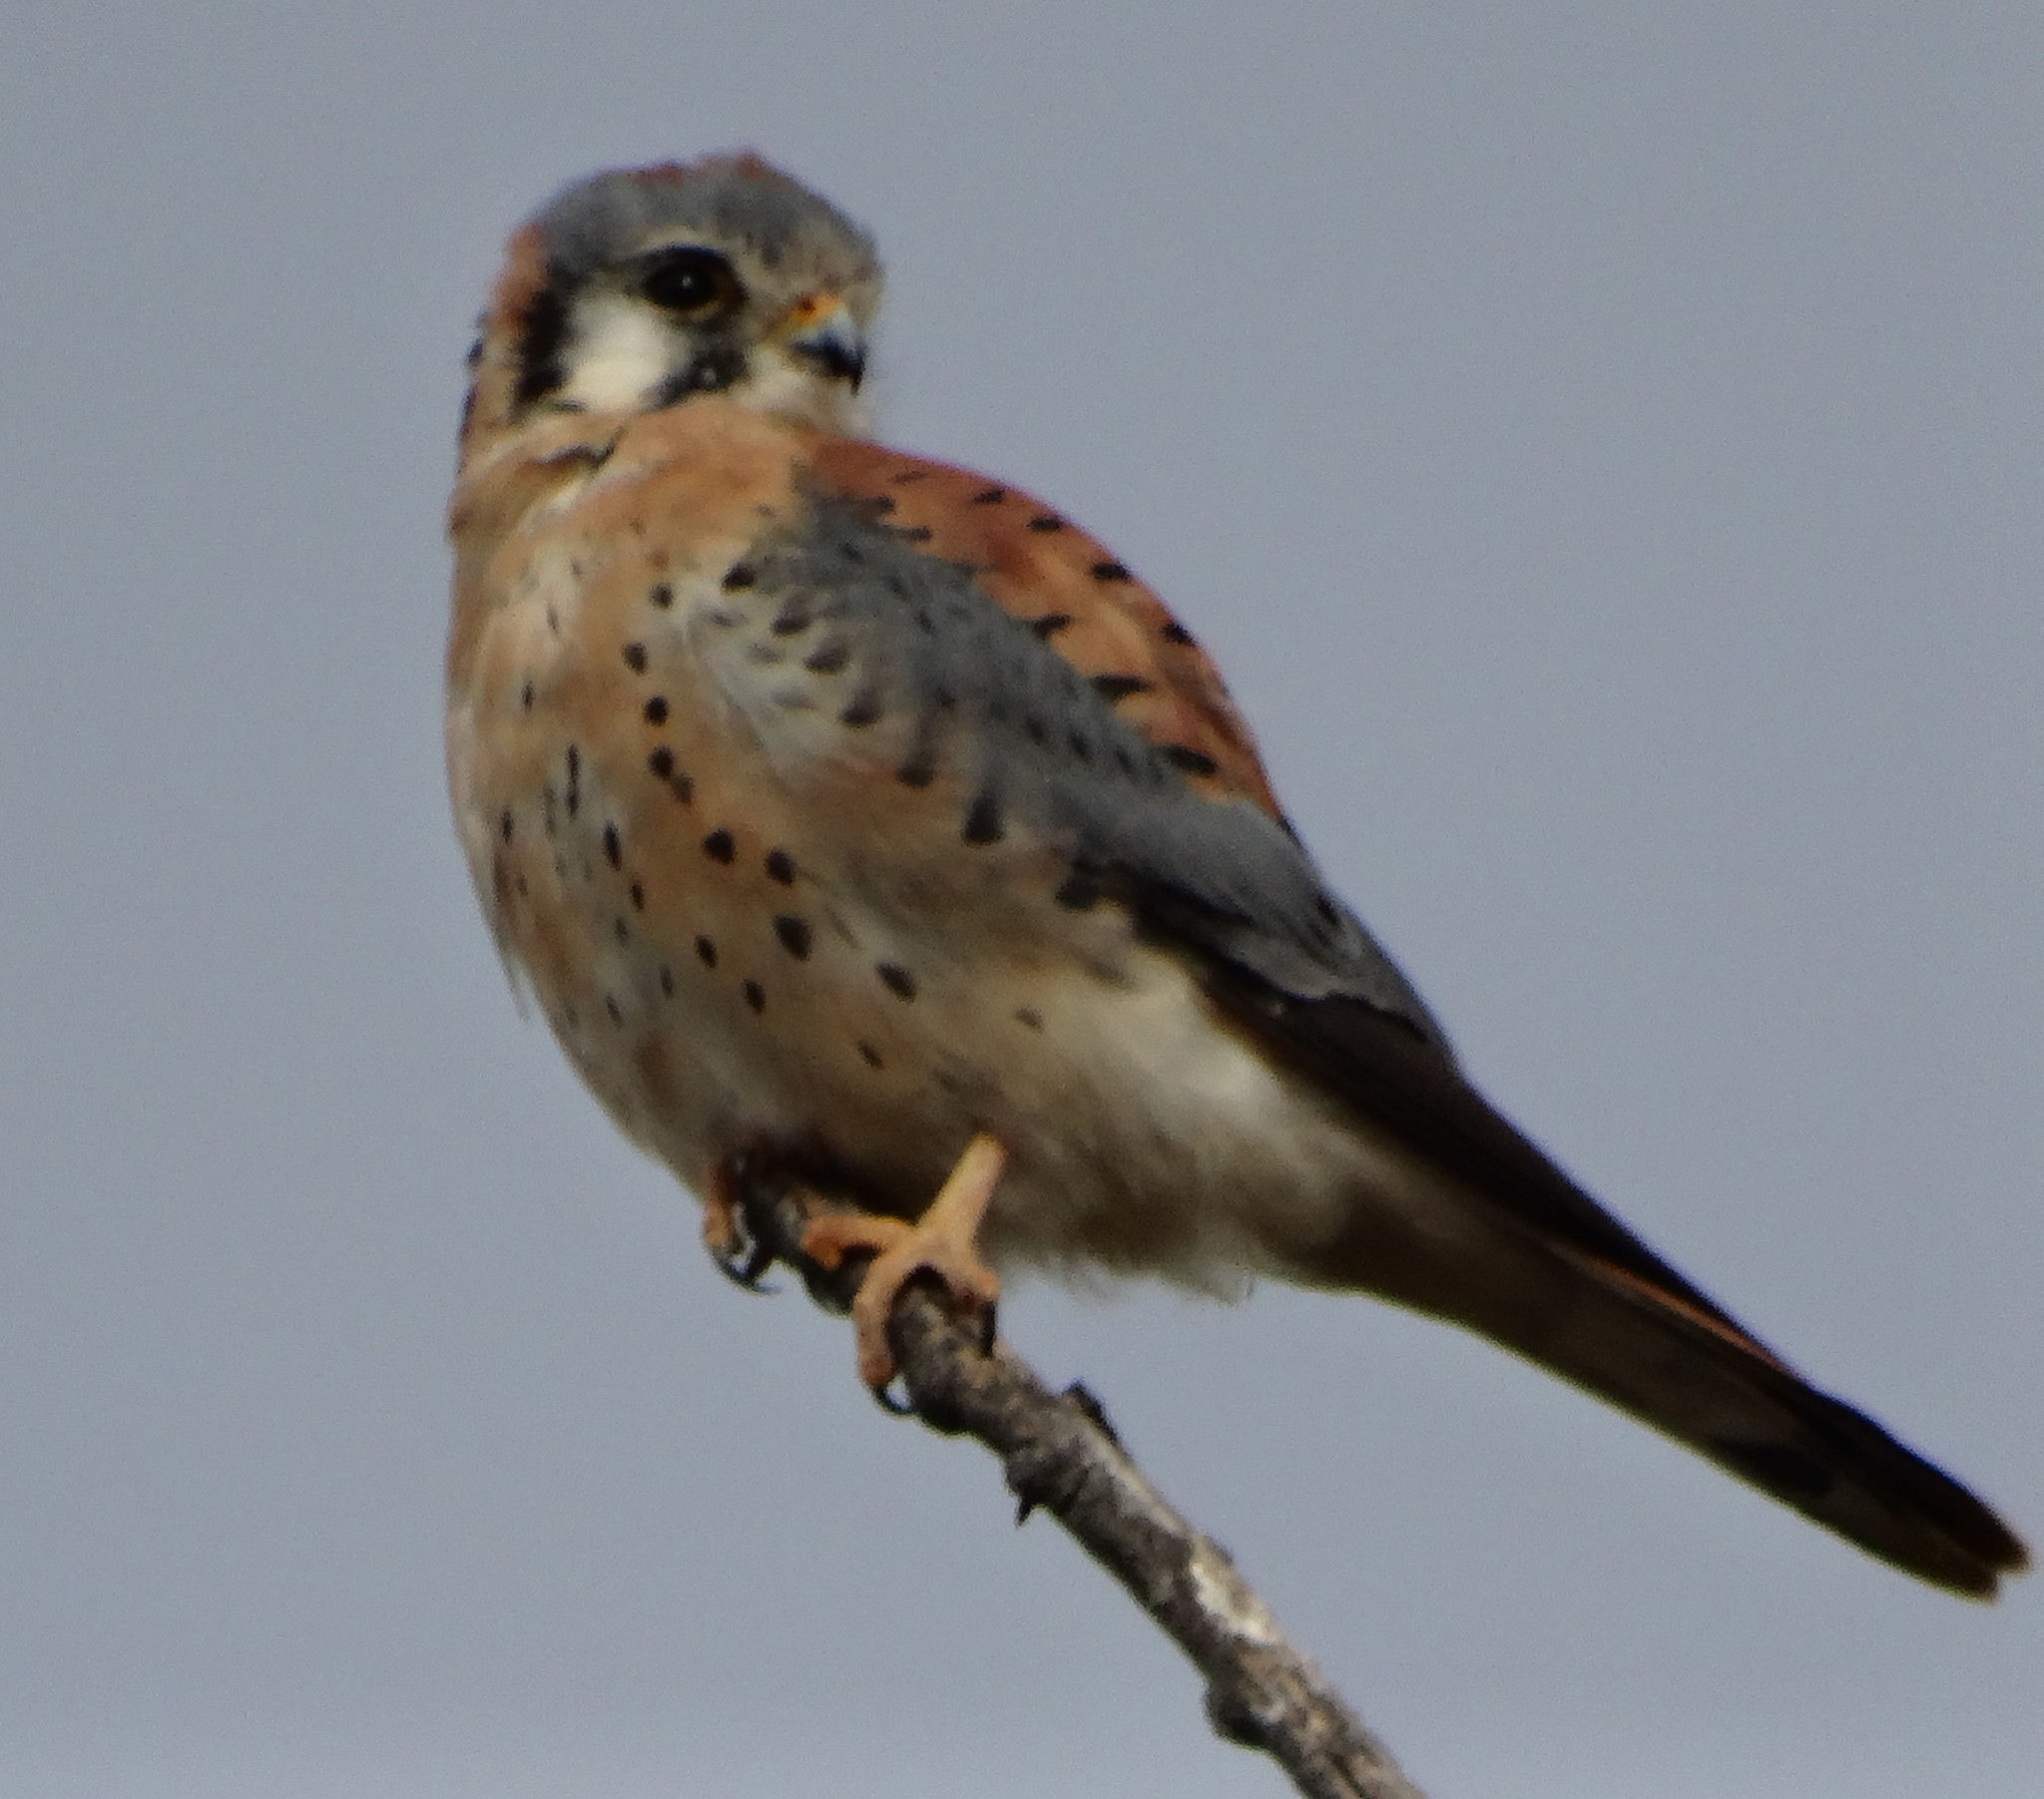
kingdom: Animalia
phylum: Chordata
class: Aves
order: Falconiformes
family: Falconidae
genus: Falco
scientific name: Falco sparverius
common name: American kestrel
